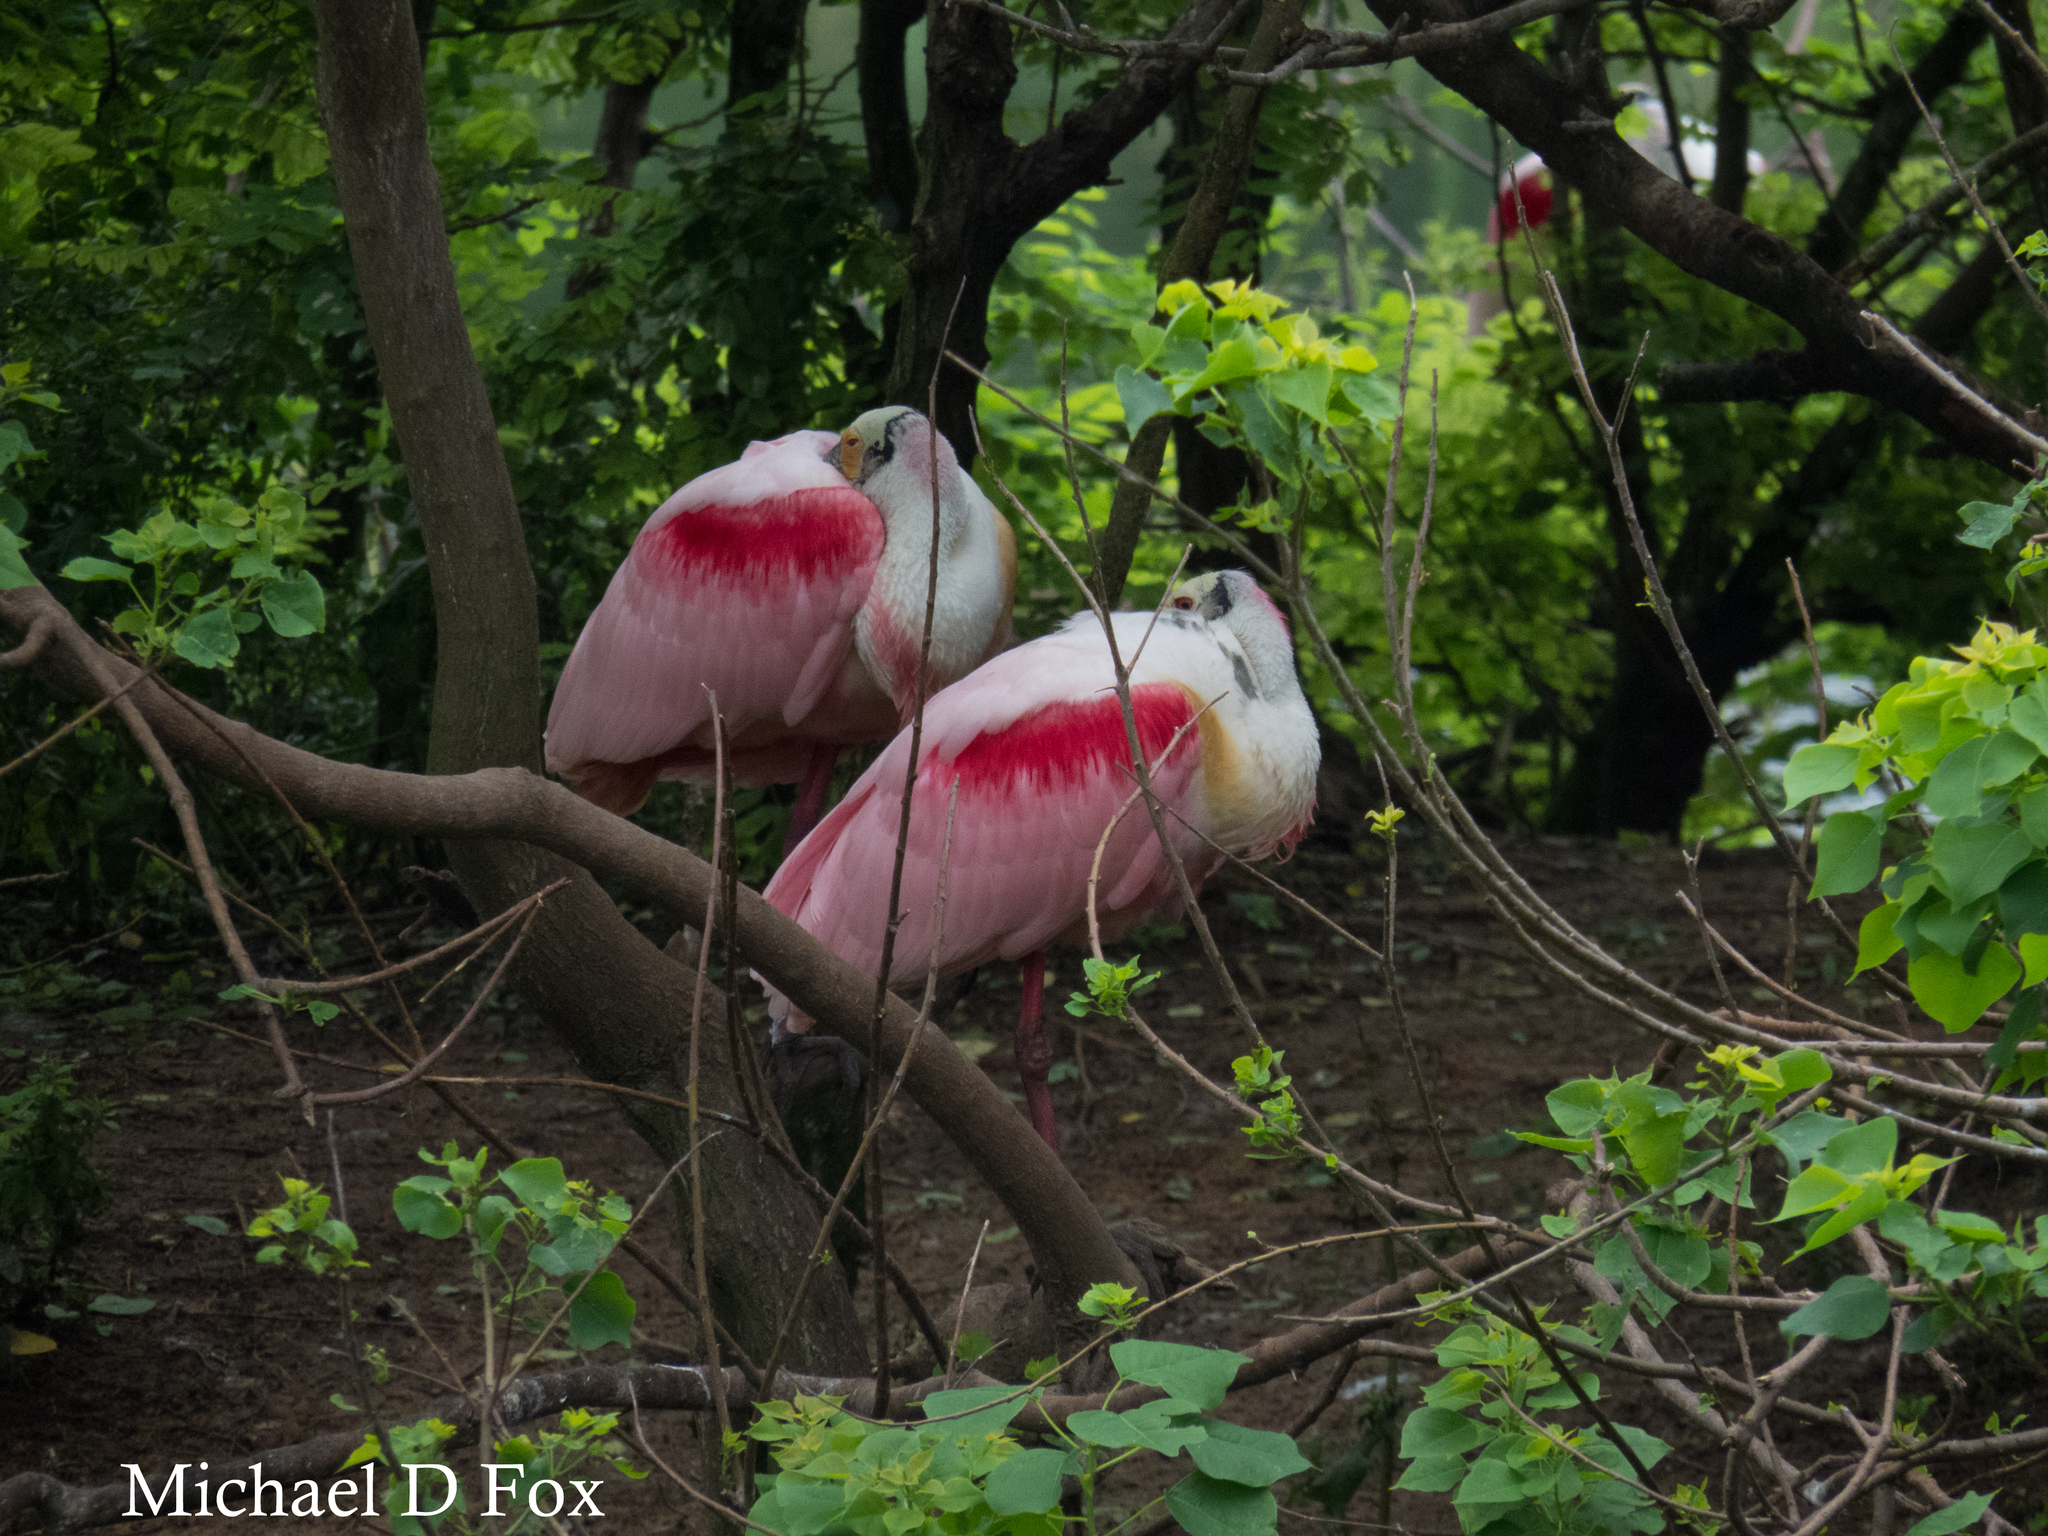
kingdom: Animalia
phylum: Chordata
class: Aves
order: Pelecaniformes
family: Threskiornithidae
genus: Platalea
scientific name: Platalea ajaja
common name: Roseate spoonbill
